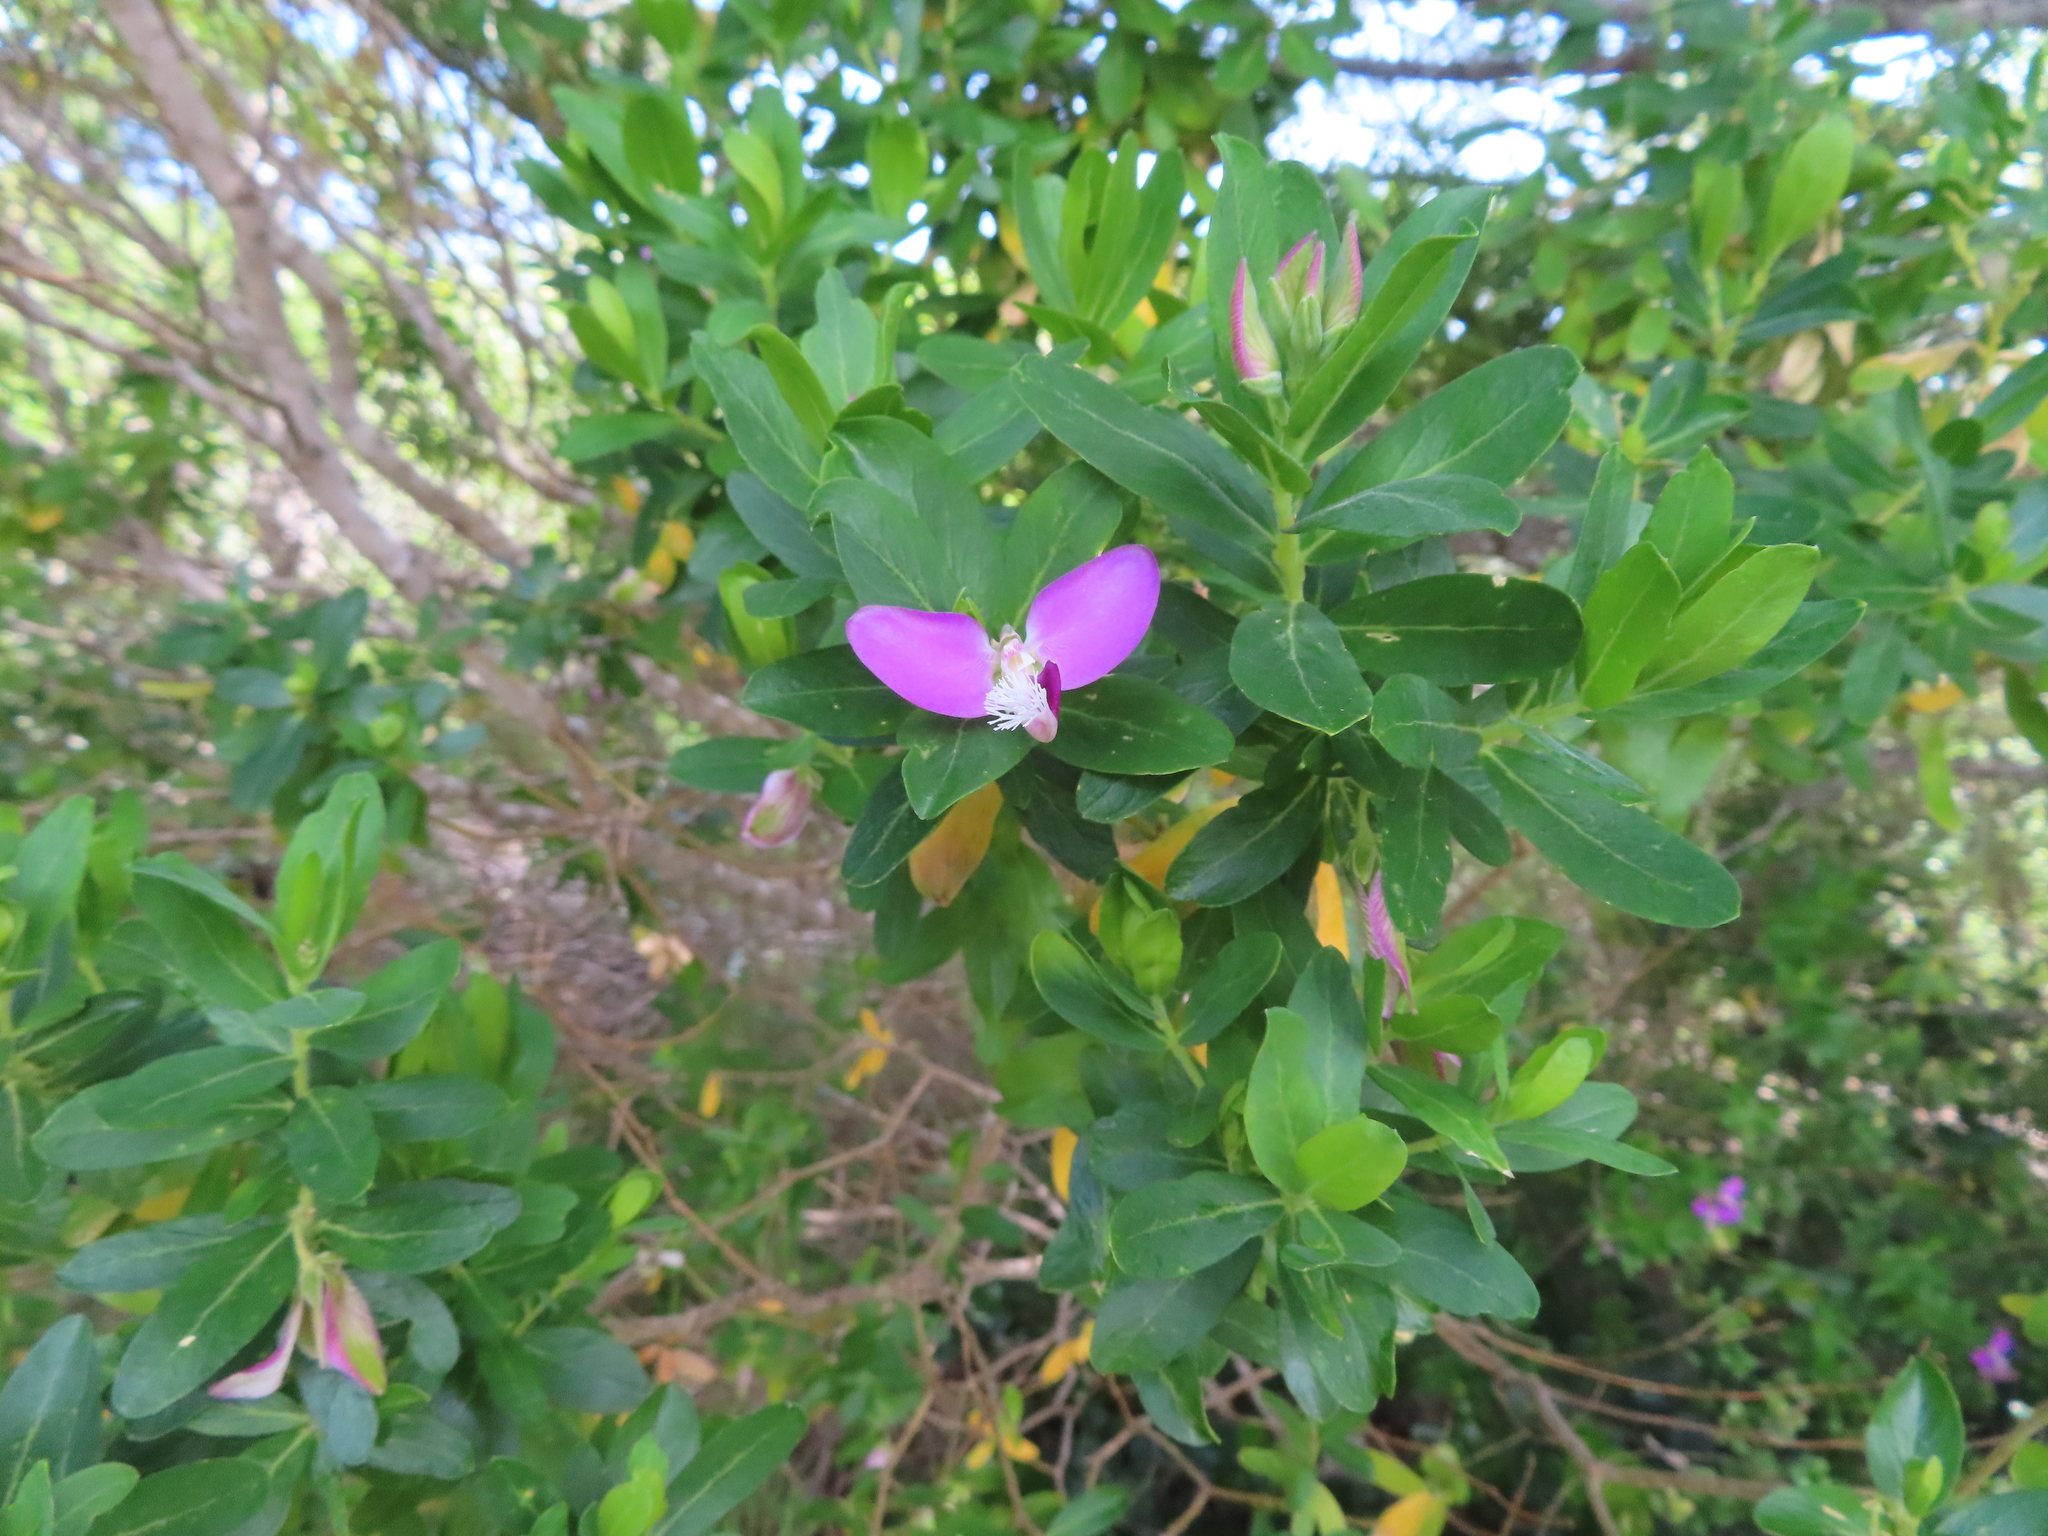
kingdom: Plantae
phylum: Tracheophyta
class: Magnoliopsida
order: Fabales
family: Polygalaceae
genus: Polygala
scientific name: Polygala myrtifolia
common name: Myrtle-leaf milkwort
